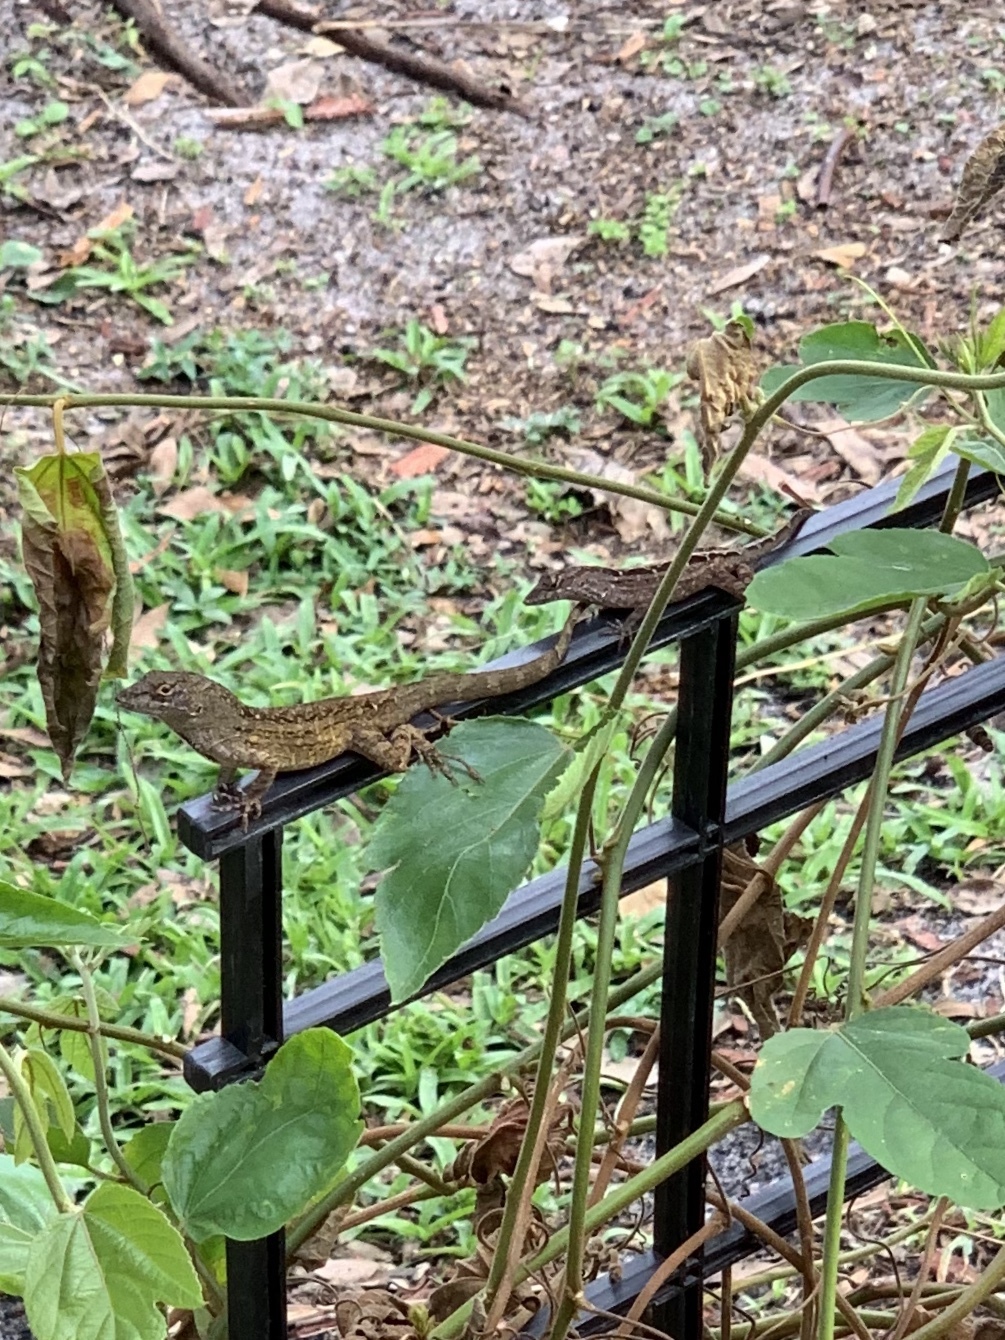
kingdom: Animalia
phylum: Chordata
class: Squamata
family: Dactyloidae
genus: Anolis
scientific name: Anolis sagrei
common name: Brown anole
